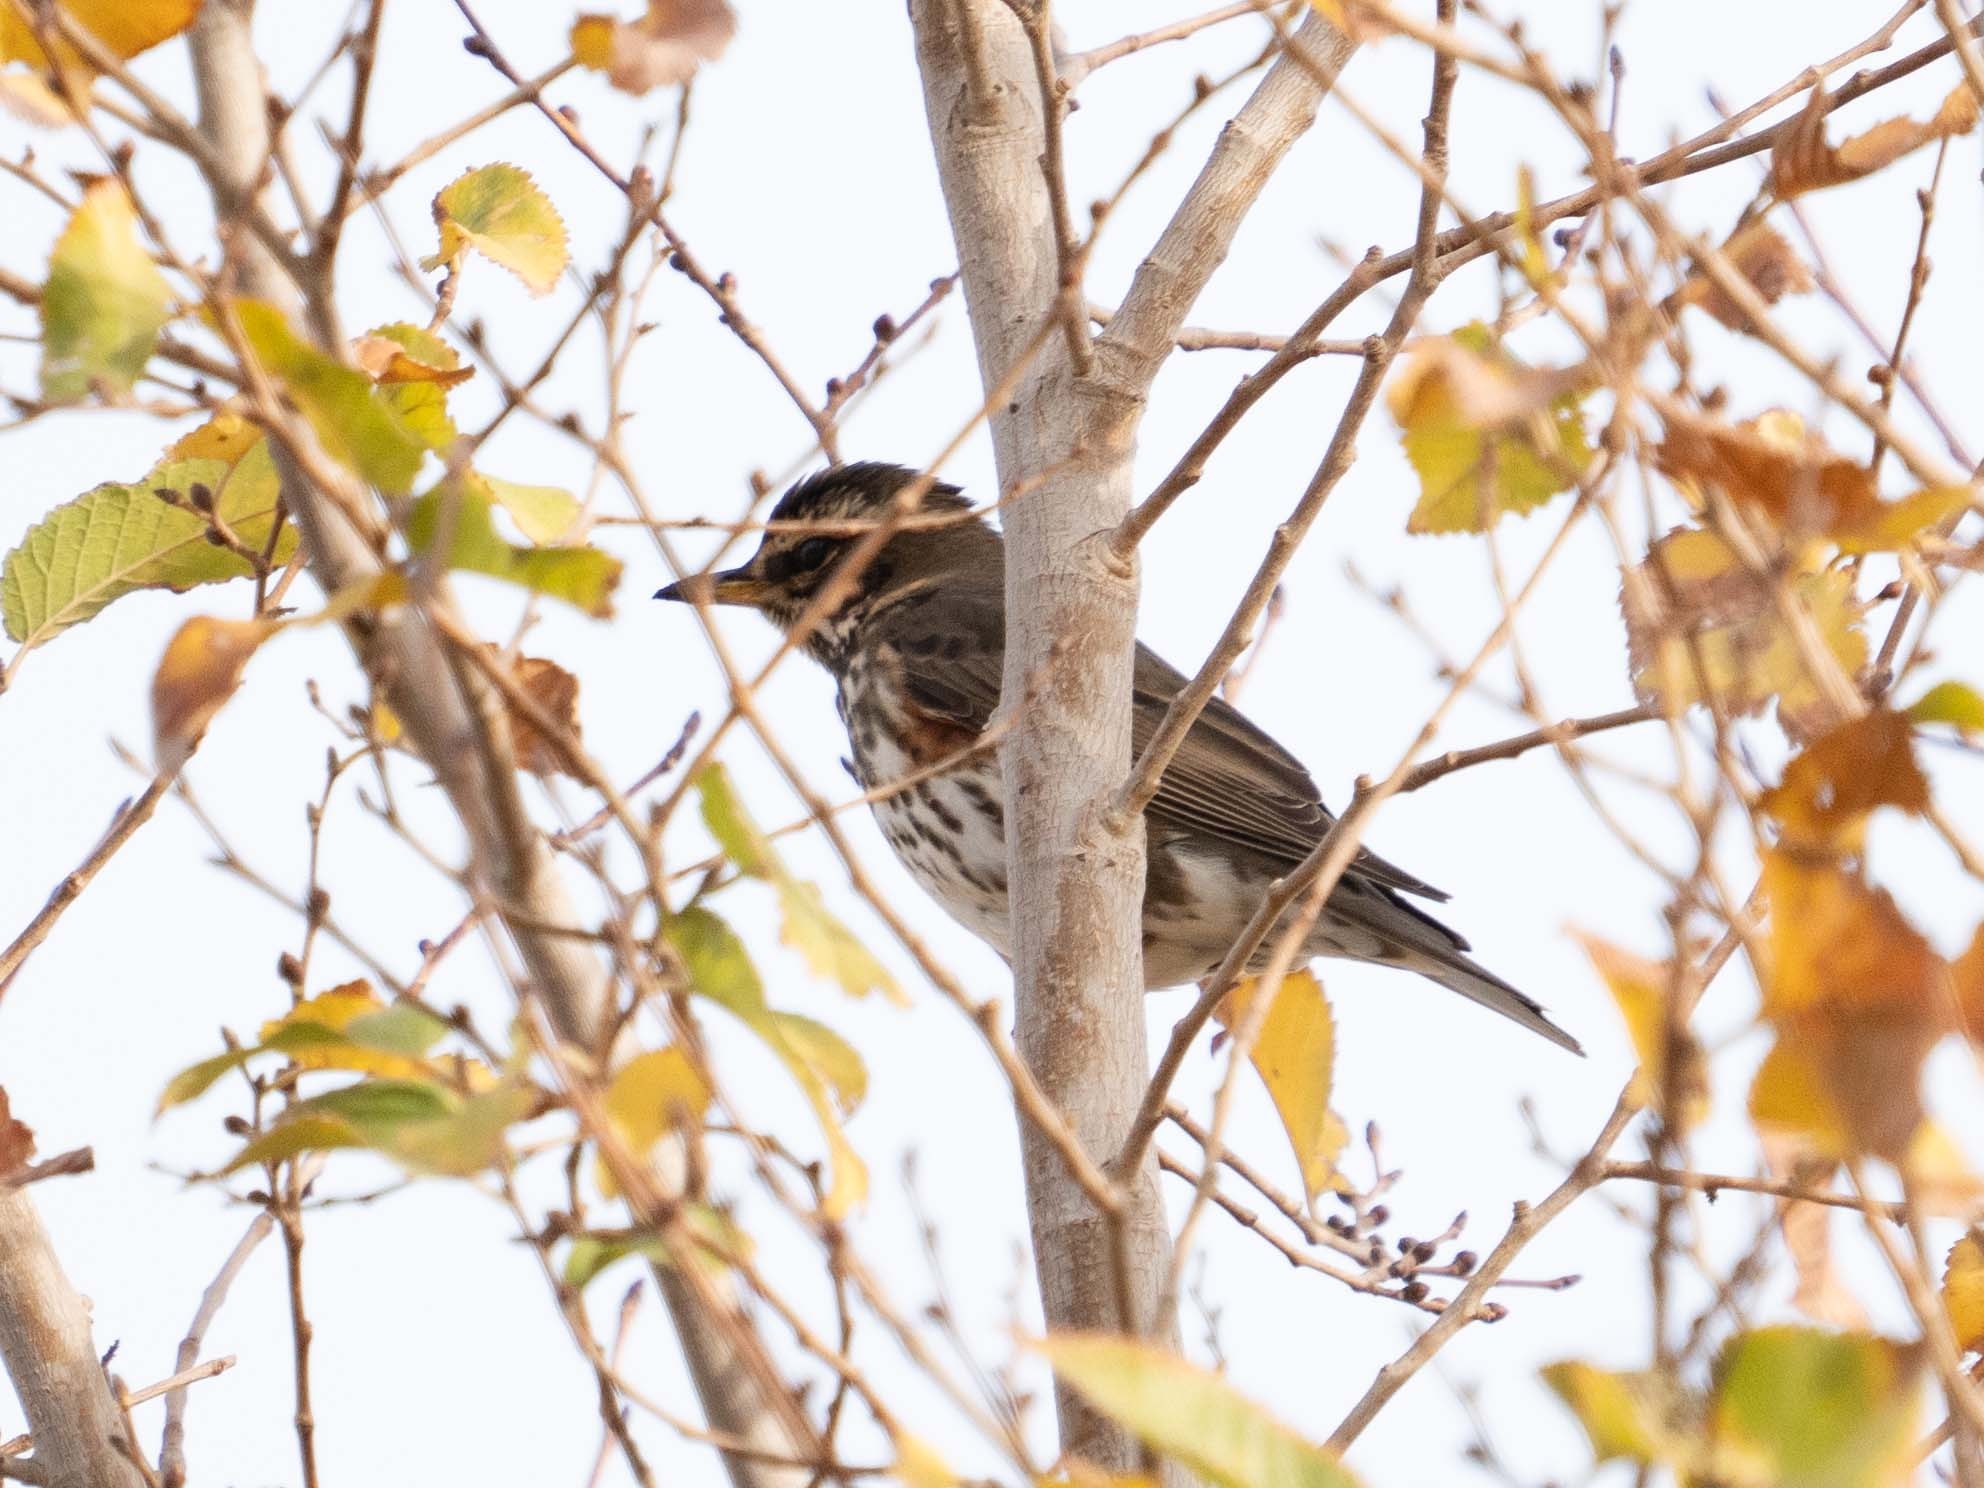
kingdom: Animalia
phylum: Chordata
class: Aves
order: Passeriformes
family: Turdidae
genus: Turdus
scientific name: Turdus iliacus
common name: Redwing
